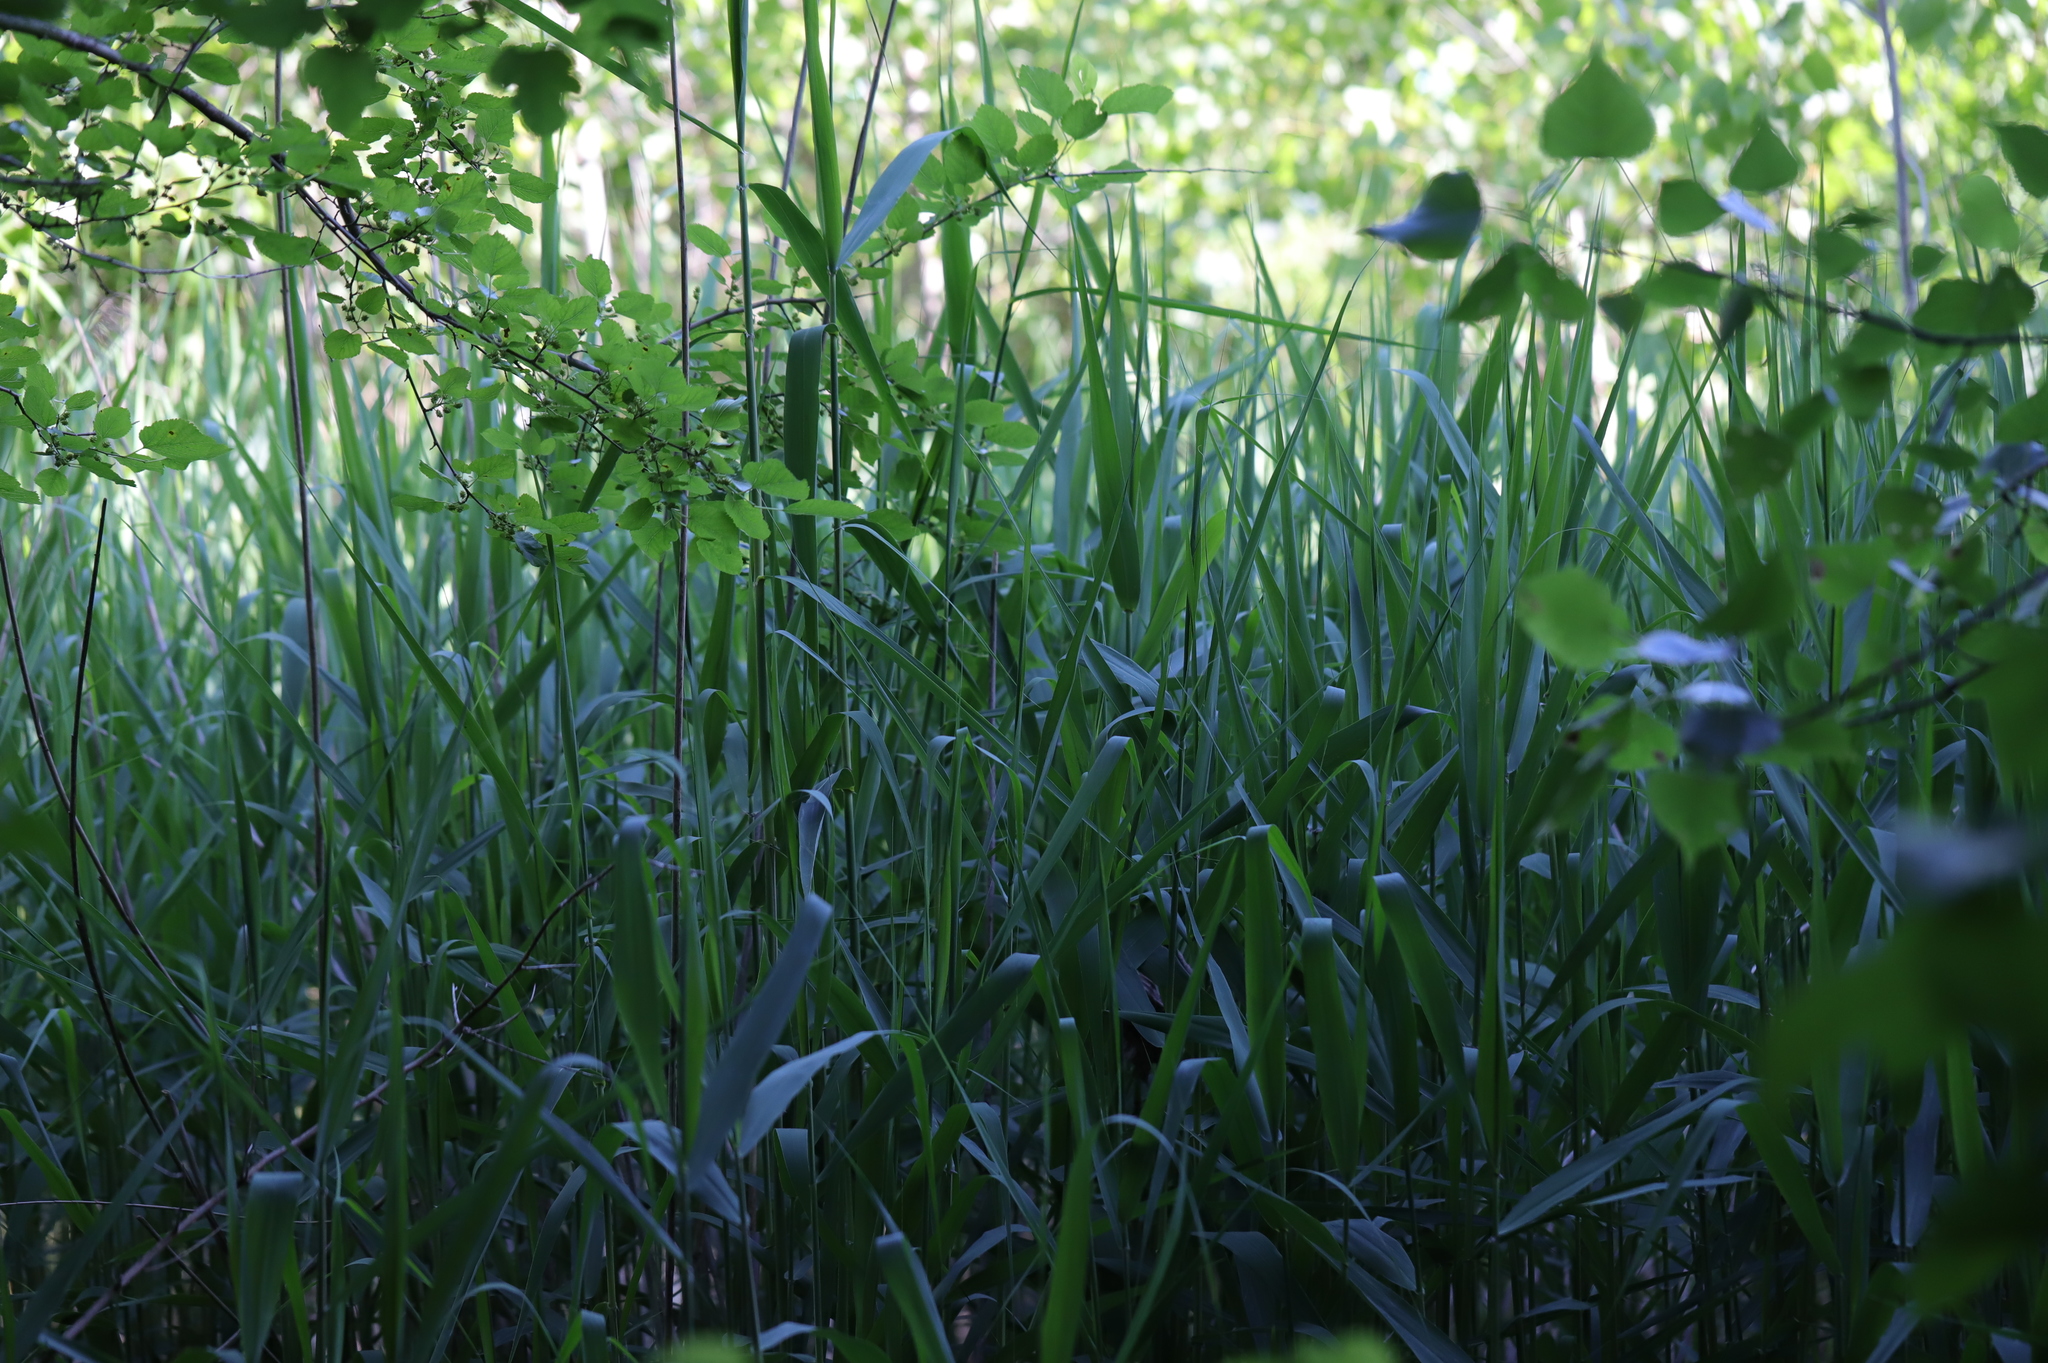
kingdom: Plantae
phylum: Tracheophyta
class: Liliopsida
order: Poales
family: Poaceae
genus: Phragmites
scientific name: Phragmites australis
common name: Common reed
